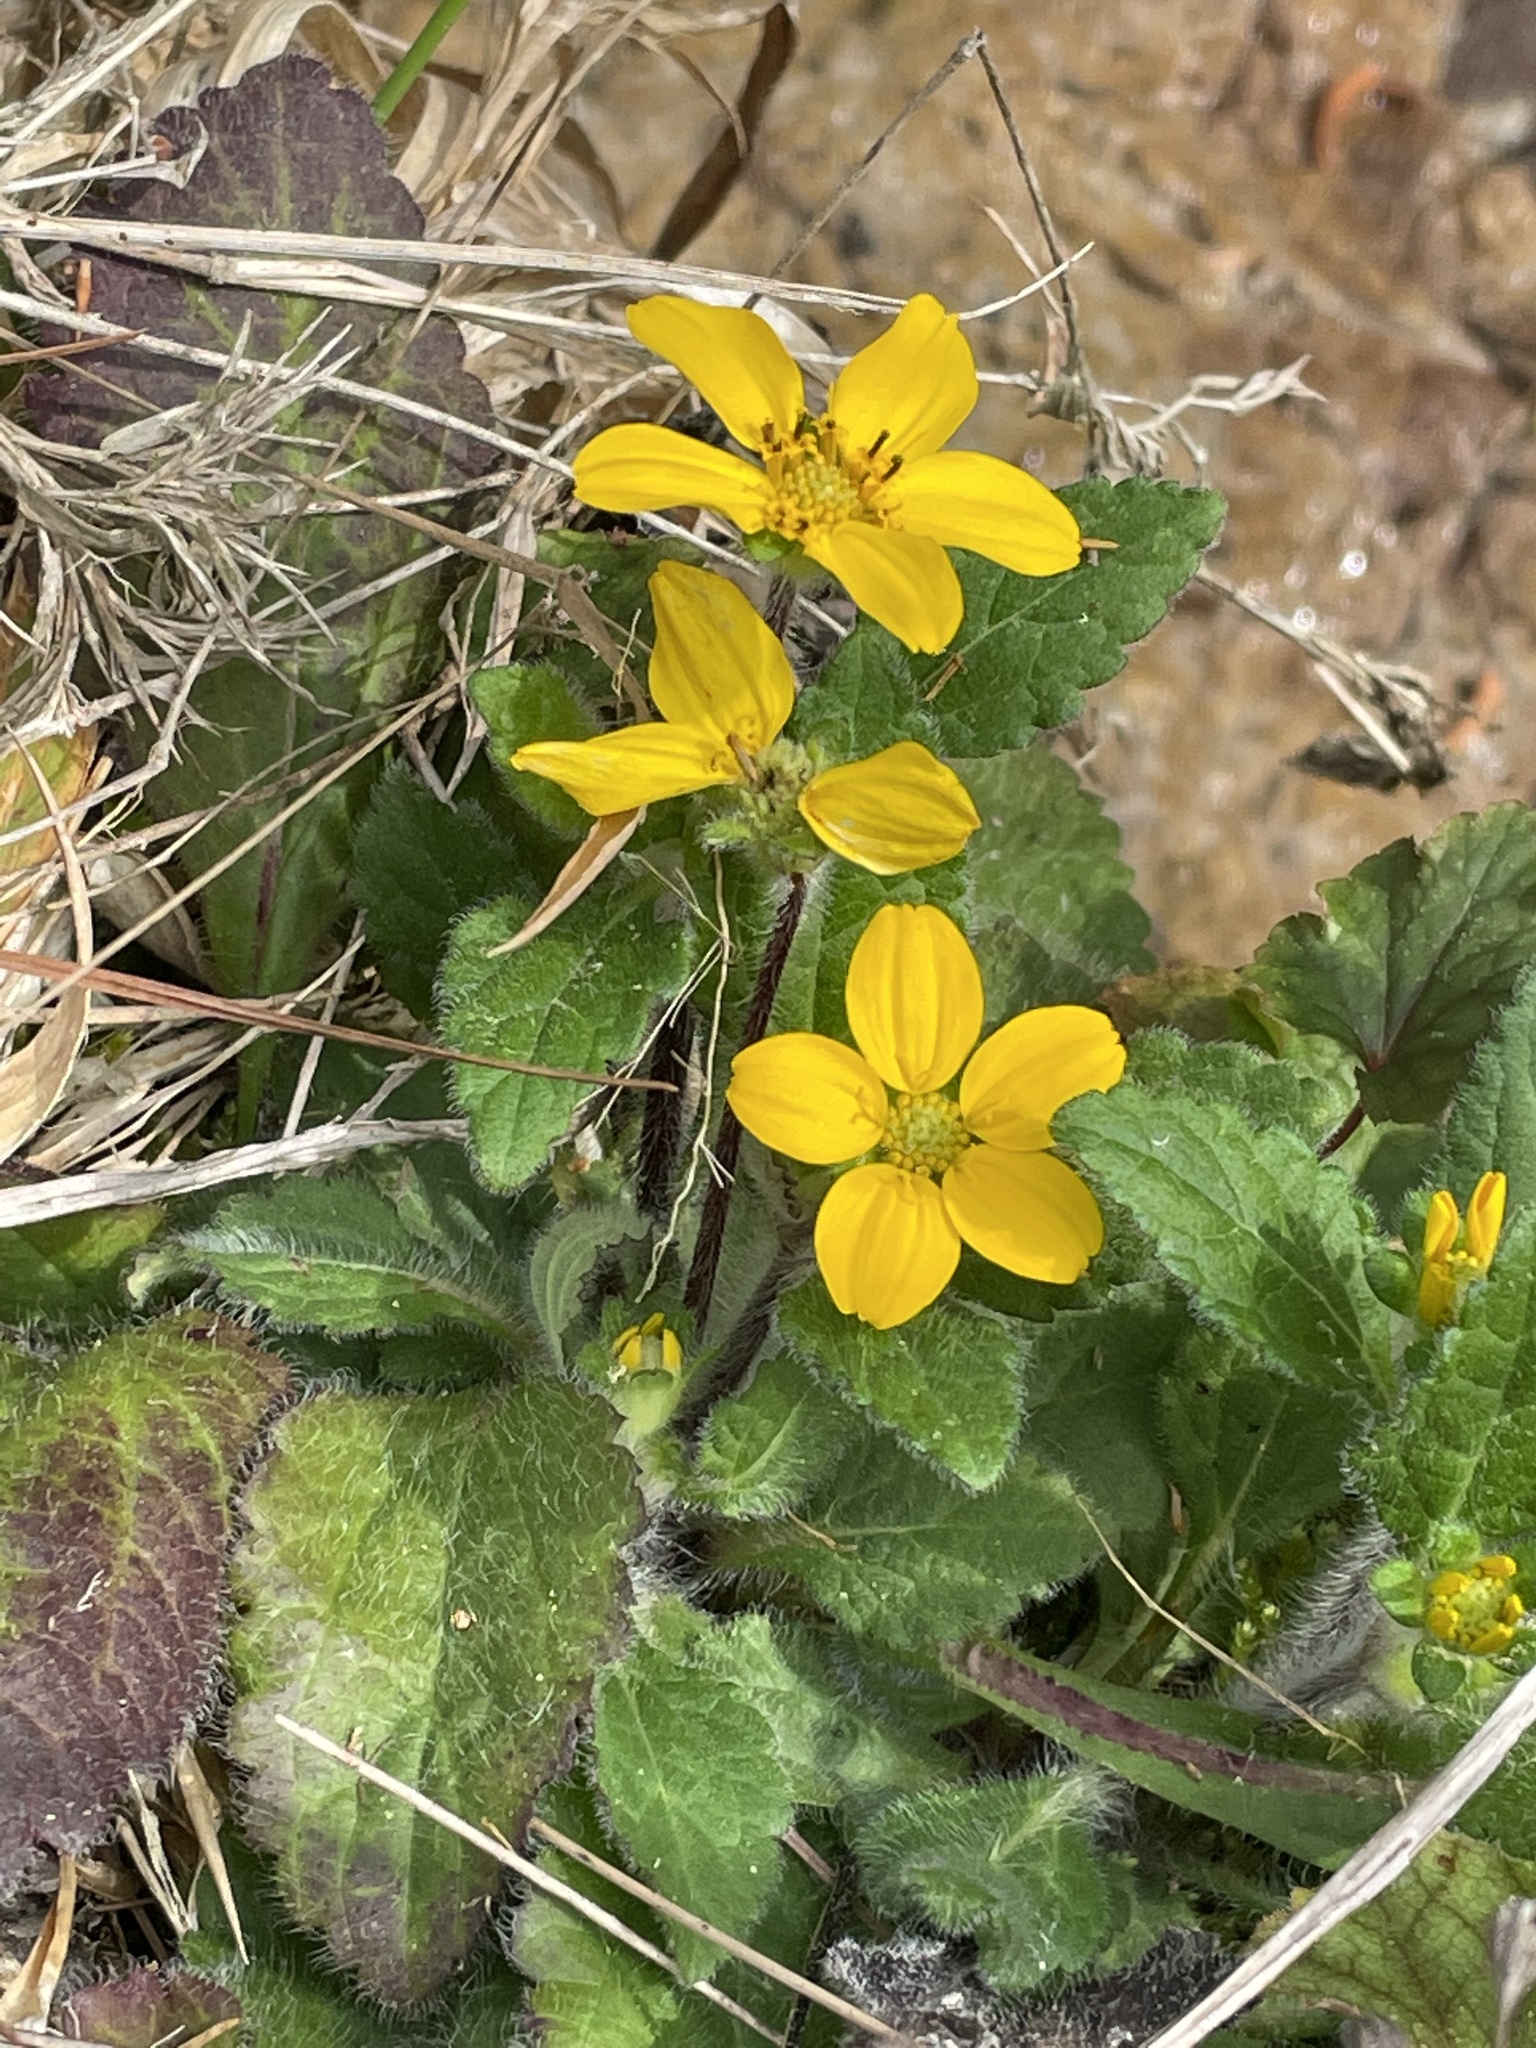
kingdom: Plantae
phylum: Tracheophyta
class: Magnoliopsida
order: Asterales
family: Asteraceae
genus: Chrysogonum
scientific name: Chrysogonum virginianum
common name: Golden-knee
